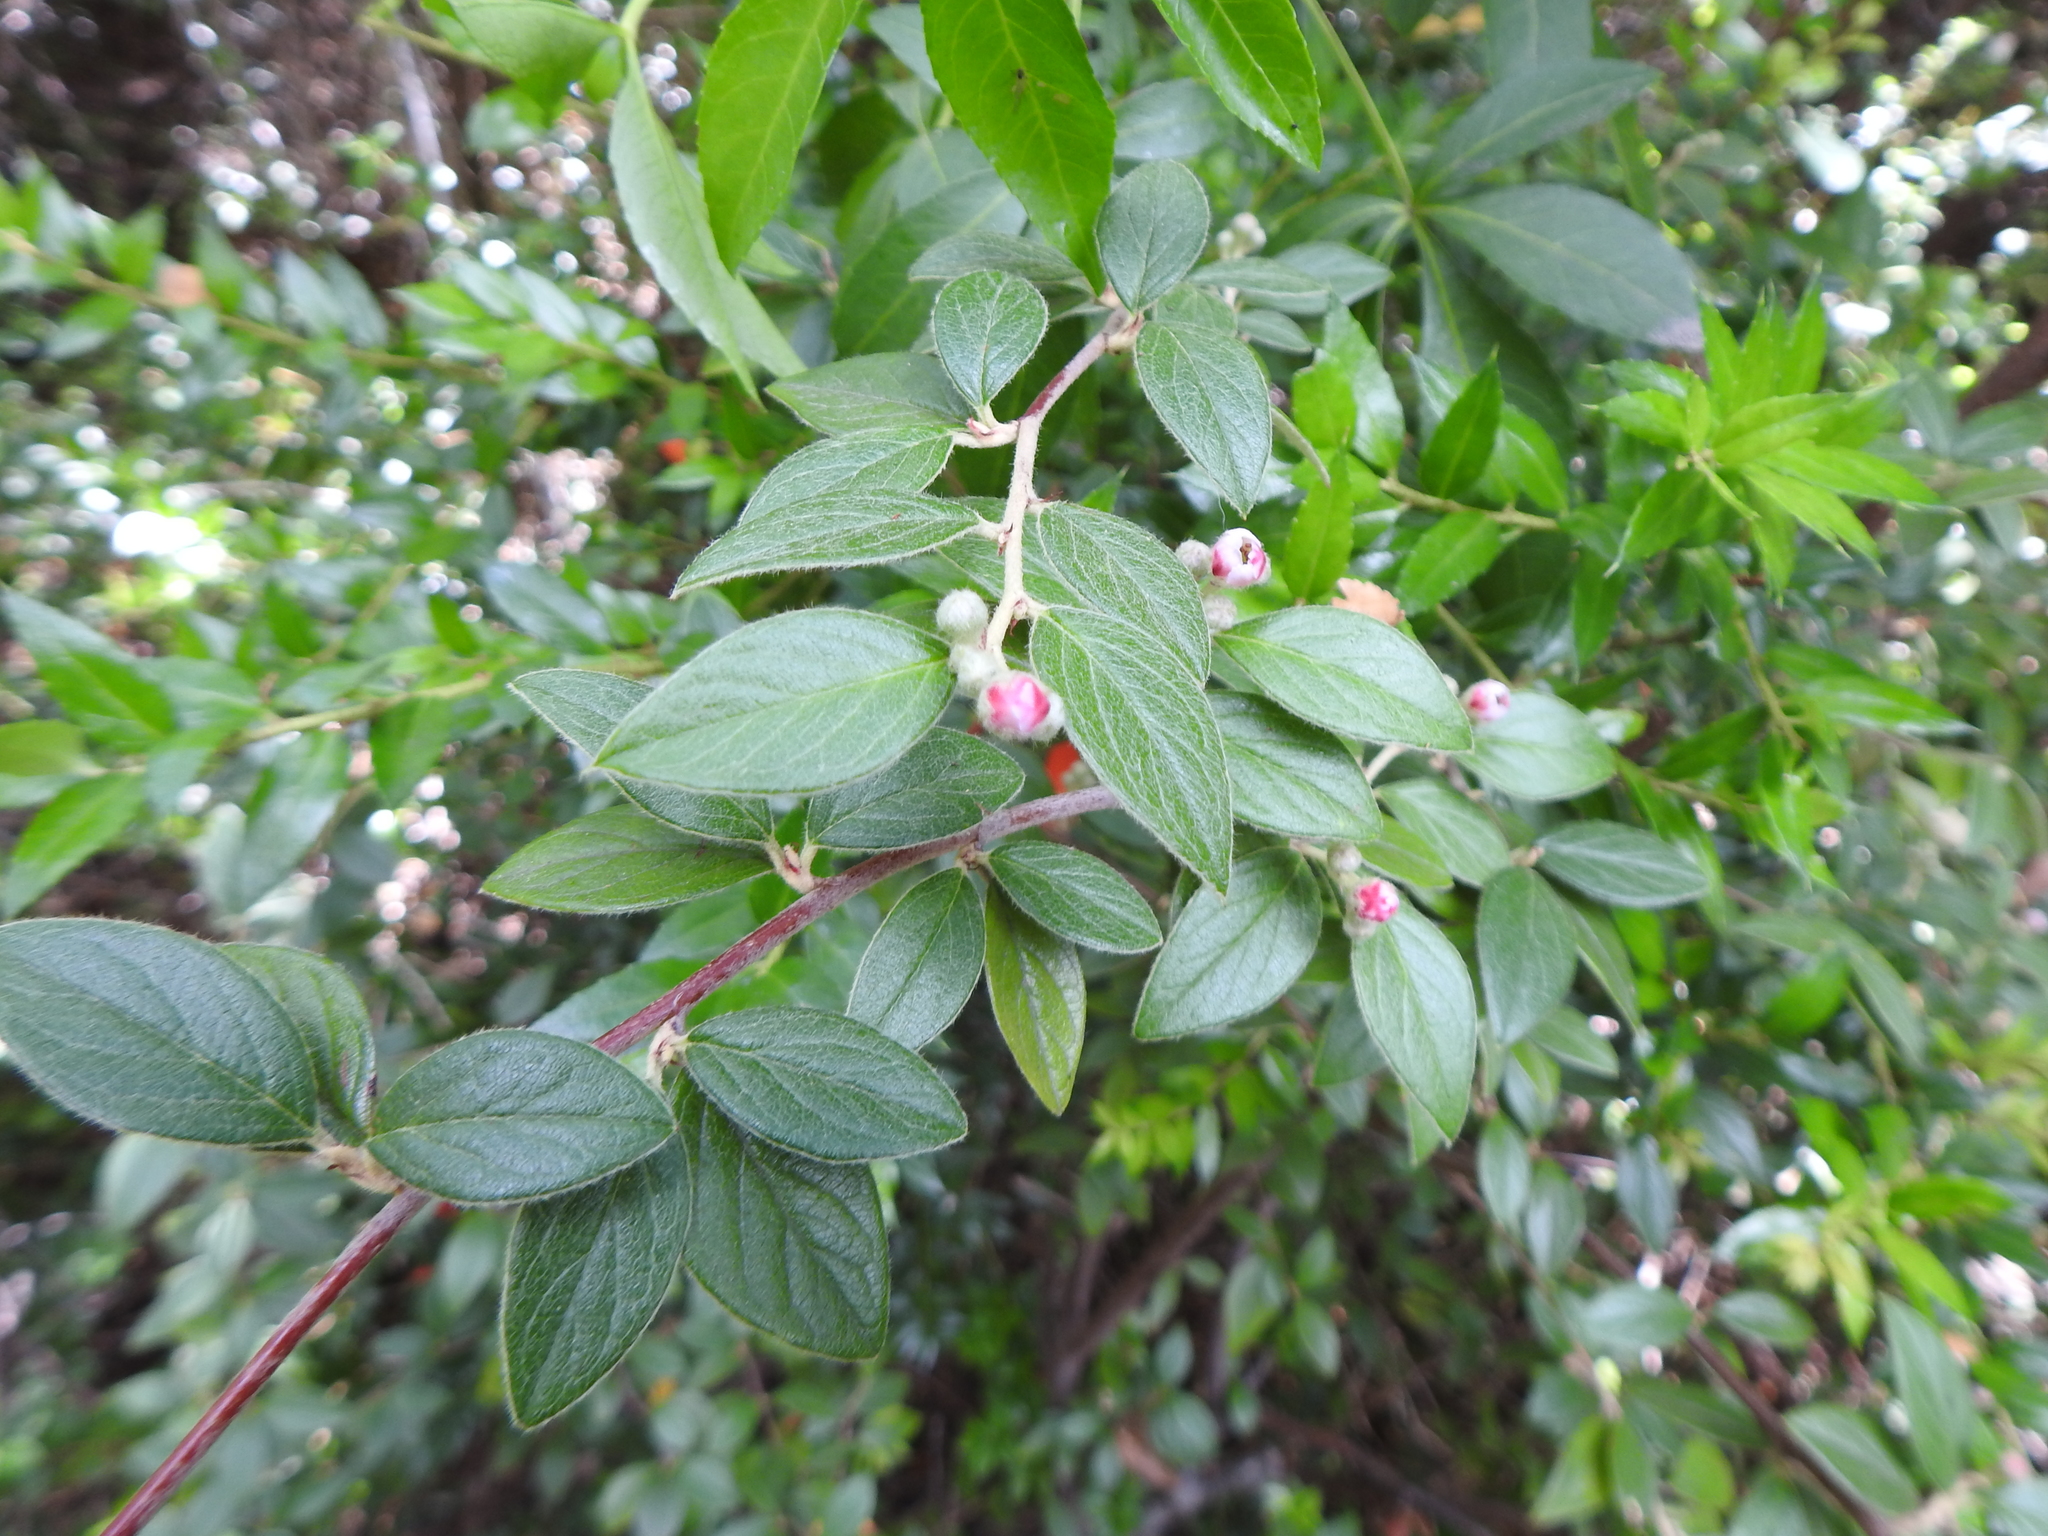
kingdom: Plantae
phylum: Tracheophyta
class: Magnoliopsida
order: Rosales
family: Rosaceae
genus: Cotoneaster
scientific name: Cotoneaster franchetii
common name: Franchet's cotoneaster
